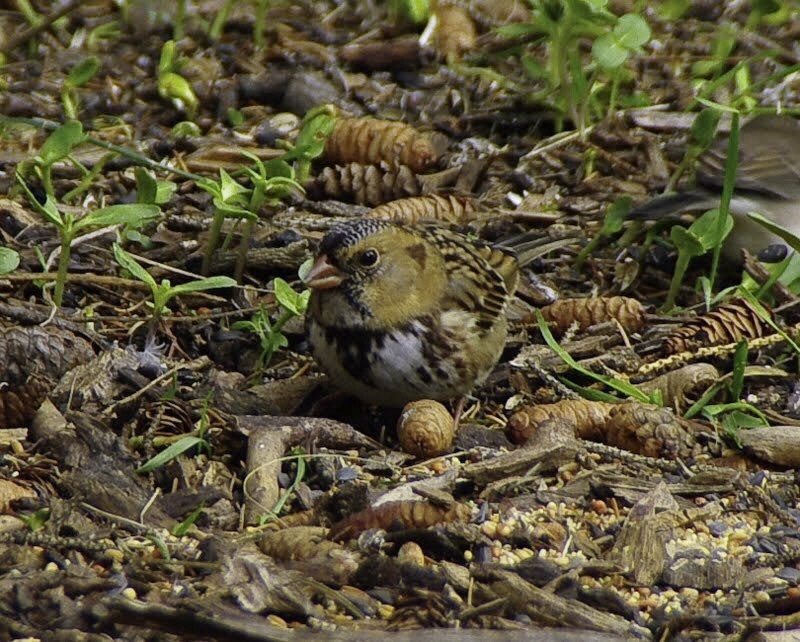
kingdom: Animalia
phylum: Chordata
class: Aves
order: Passeriformes
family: Passerellidae
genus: Zonotrichia
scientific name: Zonotrichia querula
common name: Harris's sparrow
